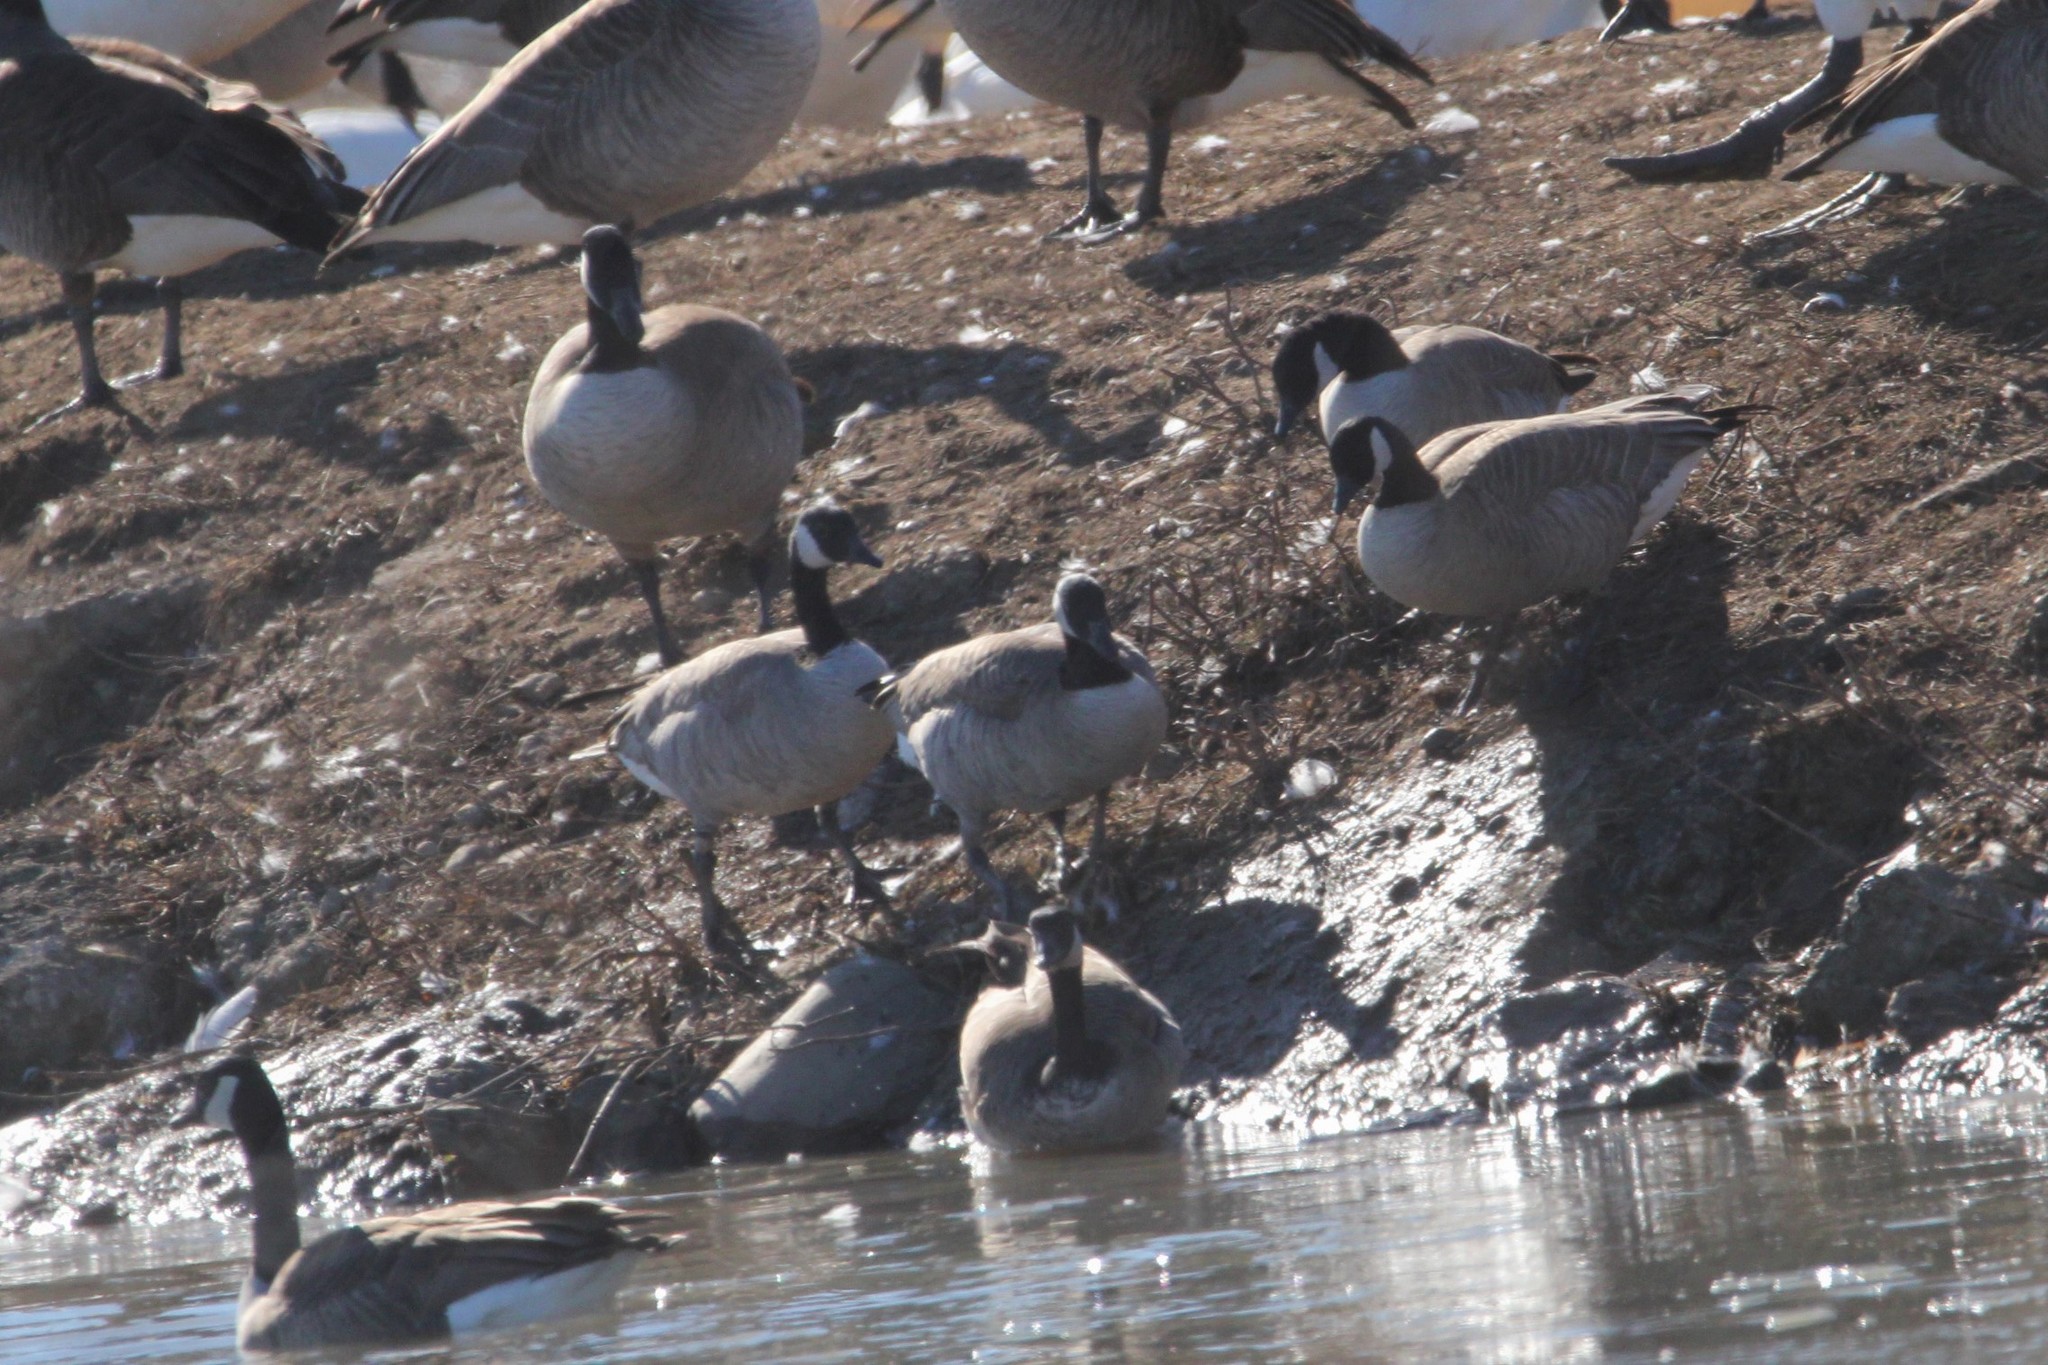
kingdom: Animalia
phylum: Chordata
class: Aves
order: Anseriformes
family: Anatidae
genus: Branta
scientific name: Branta hutchinsii
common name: Cackling goose
